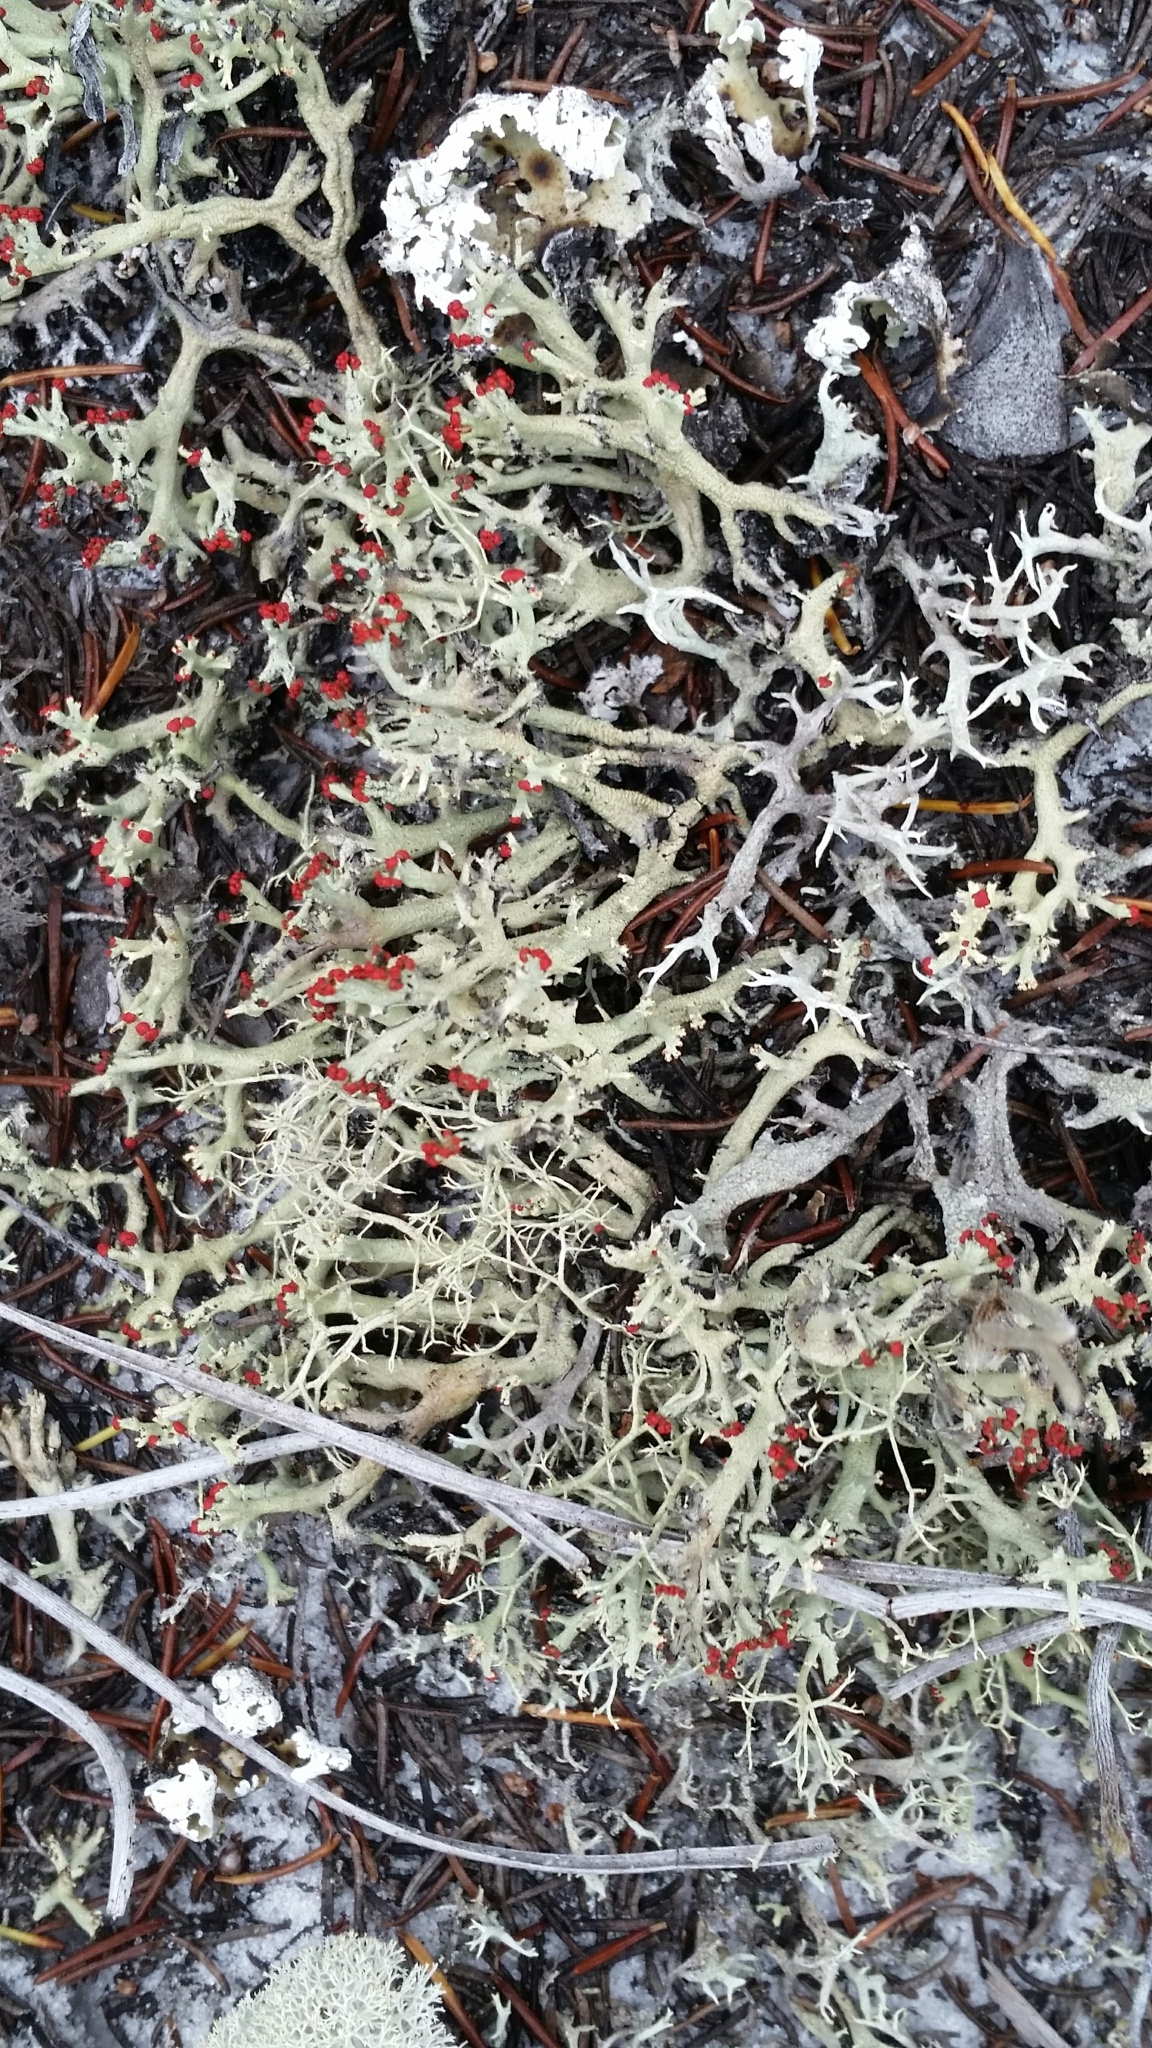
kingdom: Fungi
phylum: Ascomycota
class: Lecanoromycetes
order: Lecanorales
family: Cladoniaceae
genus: Cladonia
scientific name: Cladonia leporina
